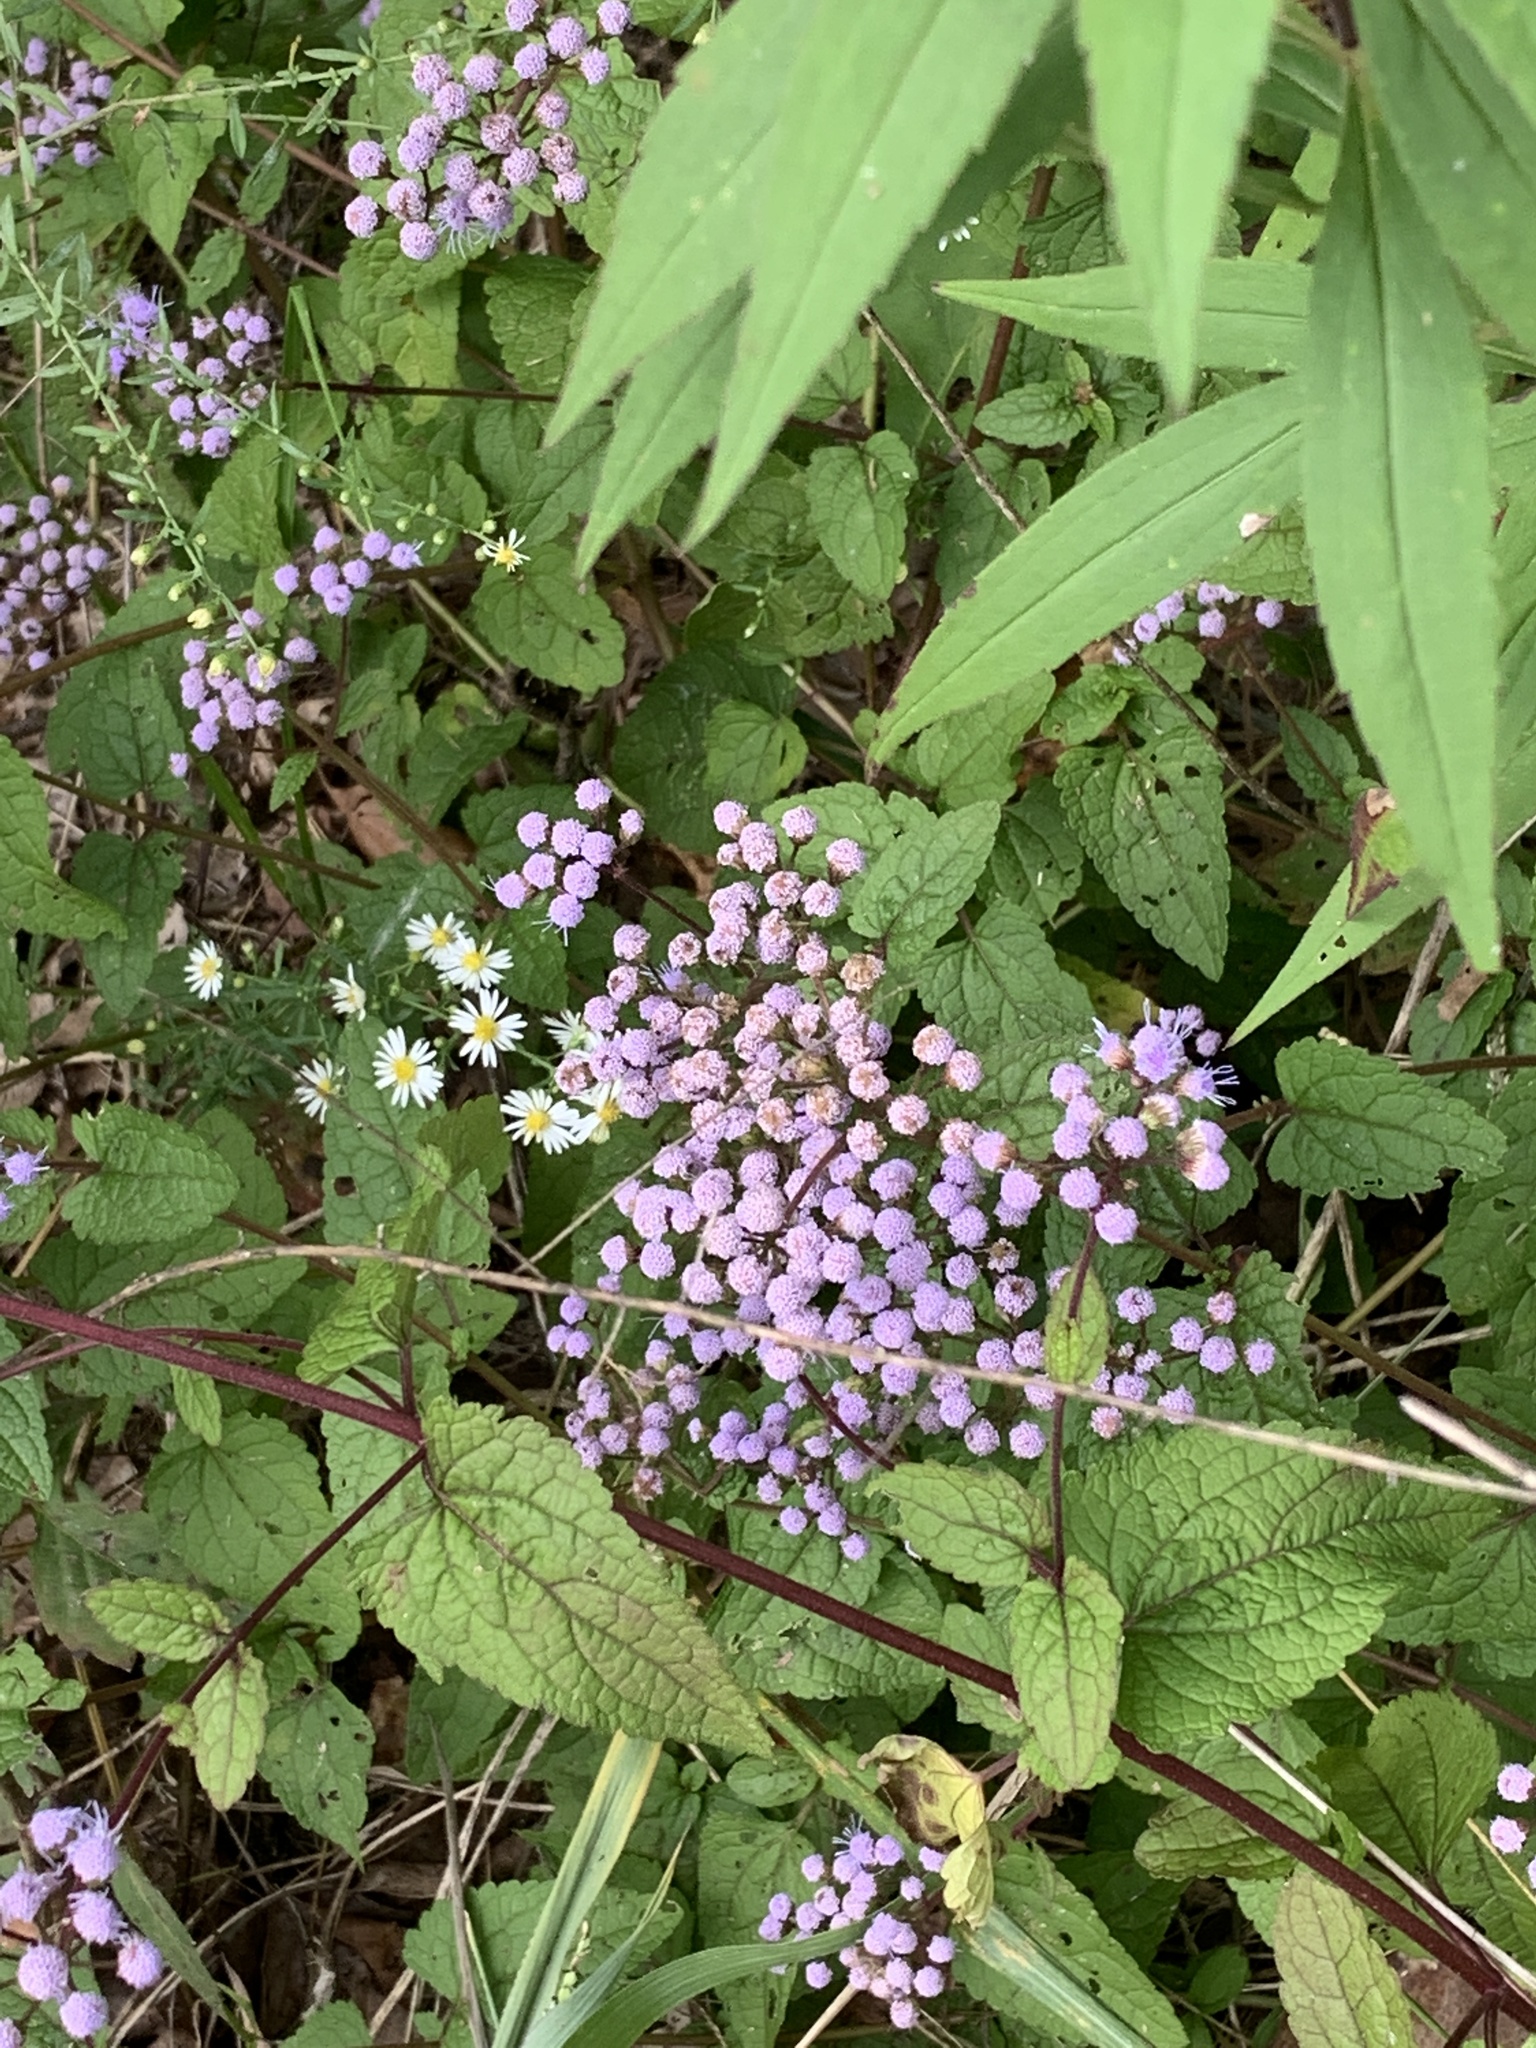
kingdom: Plantae
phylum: Tracheophyta
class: Magnoliopsida
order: Asterales
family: Asteraceae
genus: Conoclinium
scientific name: Conoclinium coelestinum
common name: Blue mistflower
